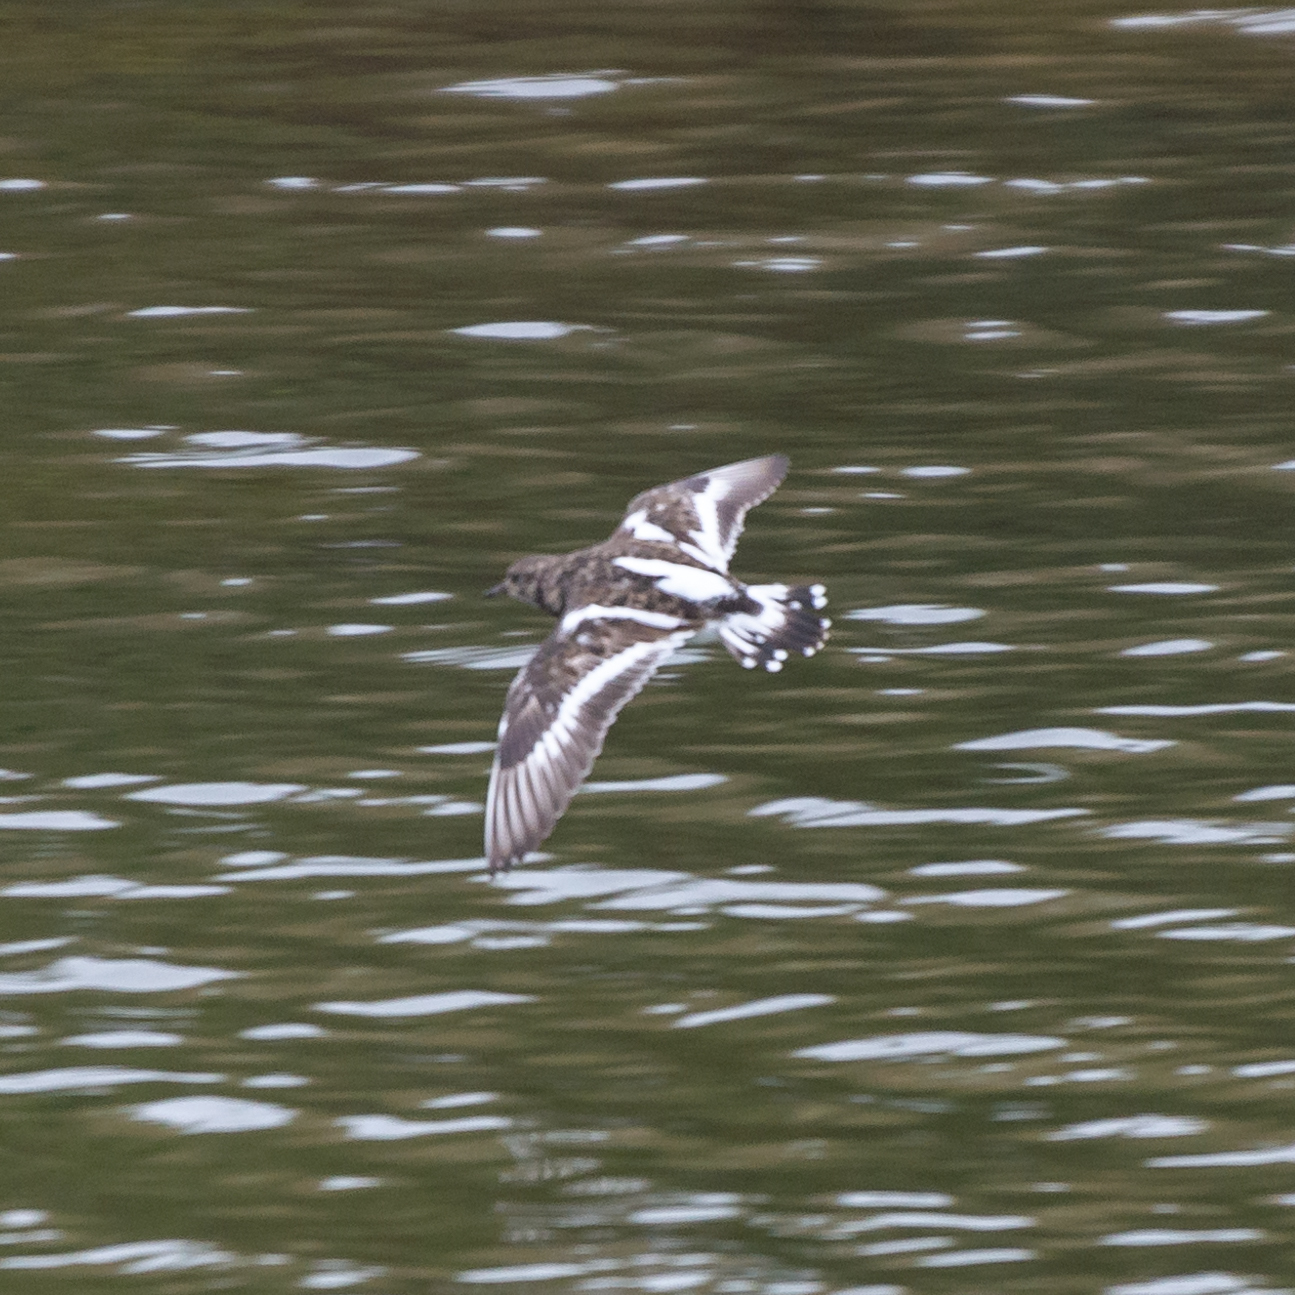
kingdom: Animalia
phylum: Chordata
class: Aves
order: Charadriiformes
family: Scolopacidae
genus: Arenaria
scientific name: Arenaria interpres
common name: Ruddy turnstone
